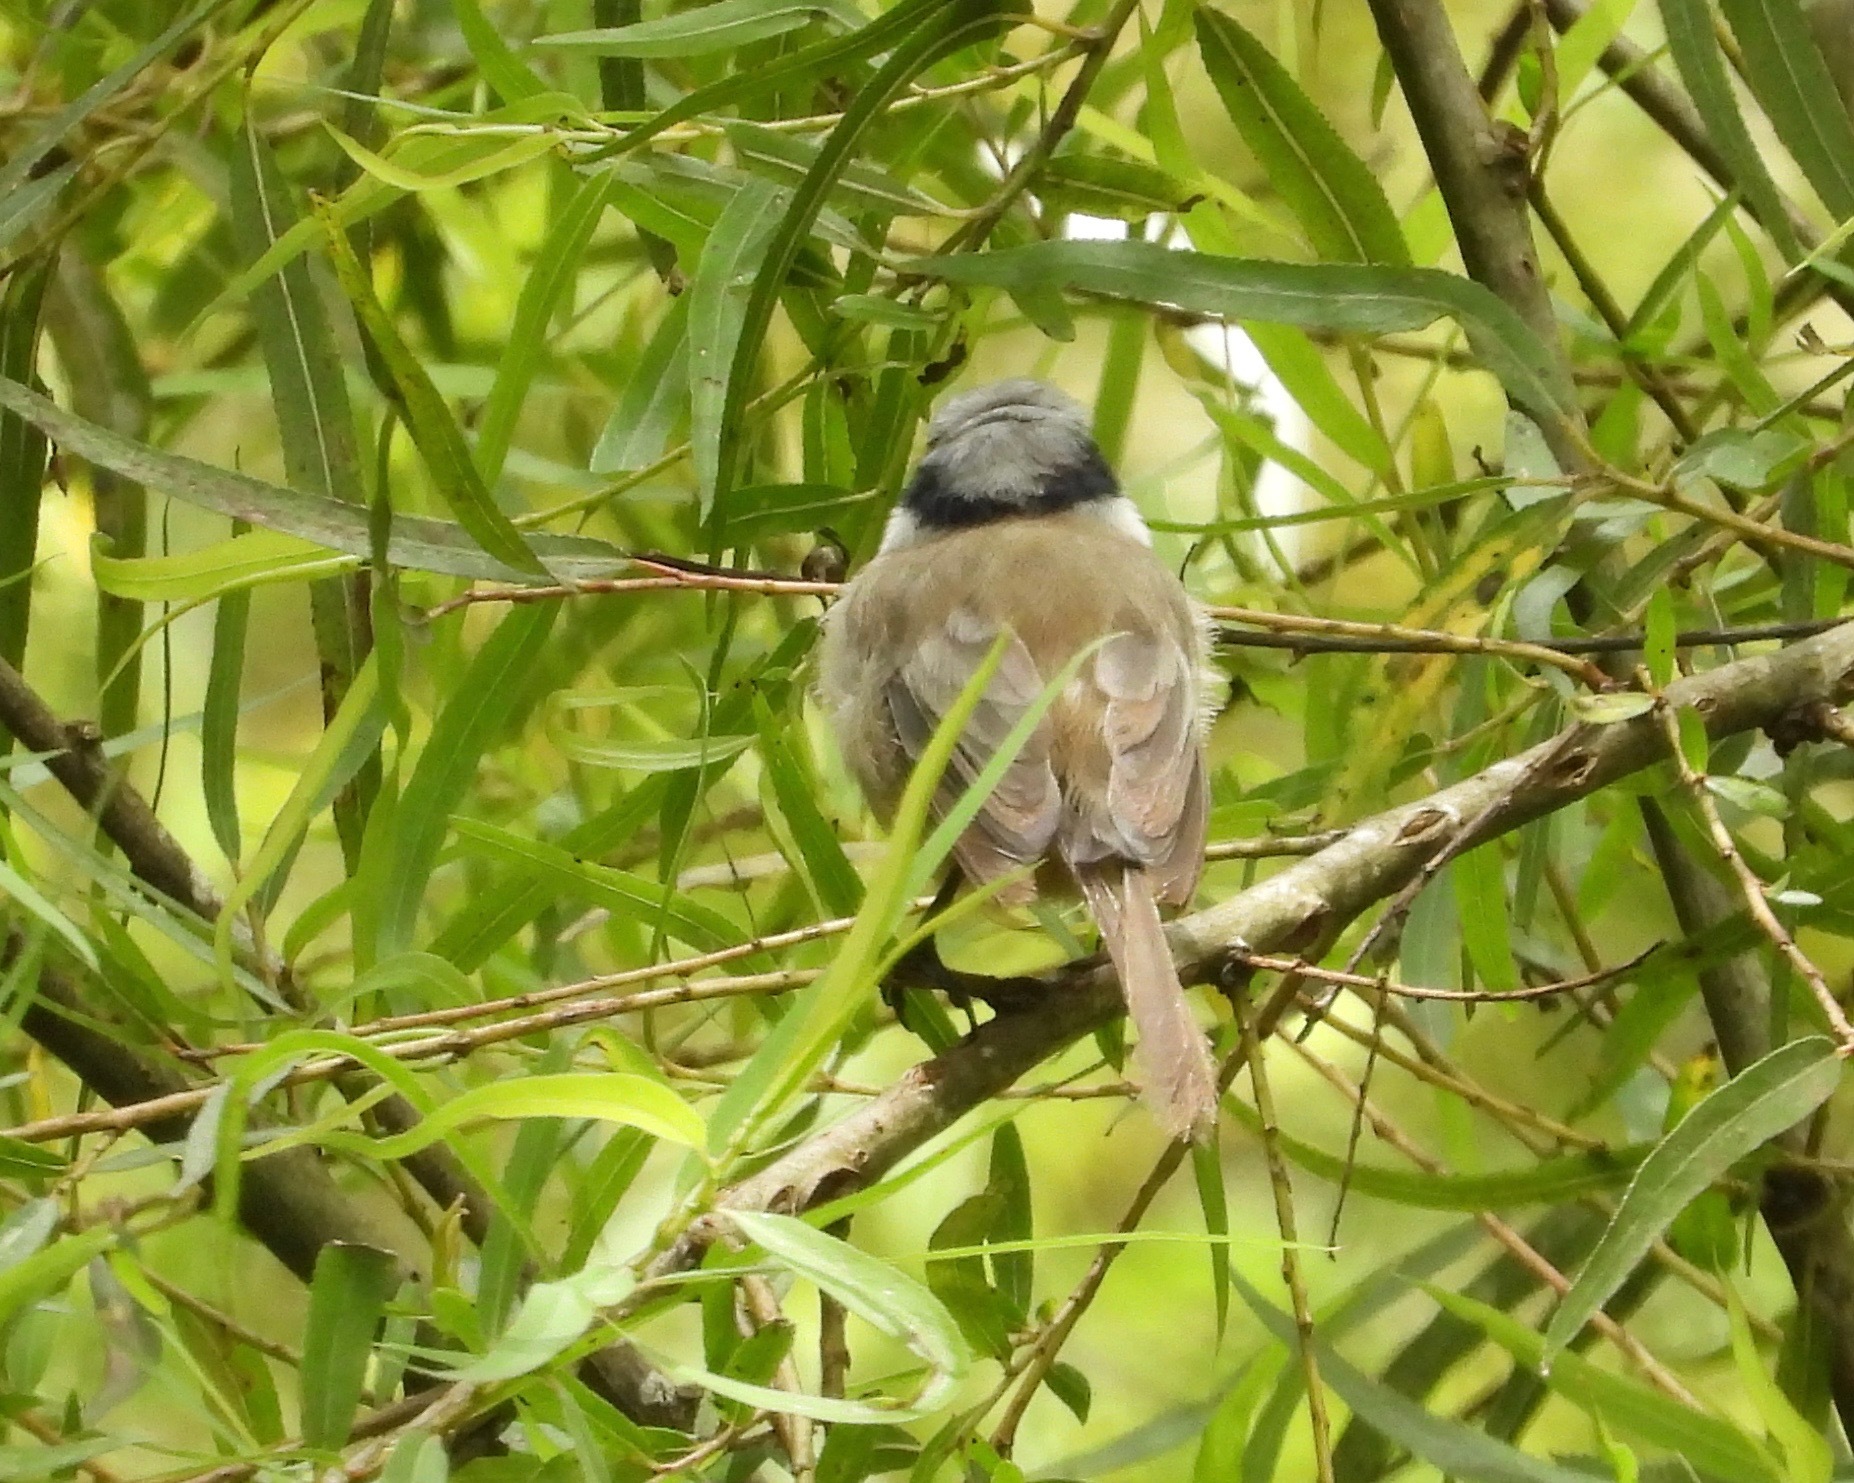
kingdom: Animalia
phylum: Chordata
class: Aves
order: Passeriformes
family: Aegithalidae
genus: Psaltriparus
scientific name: Psaltriparus minimus
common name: American bushtit
